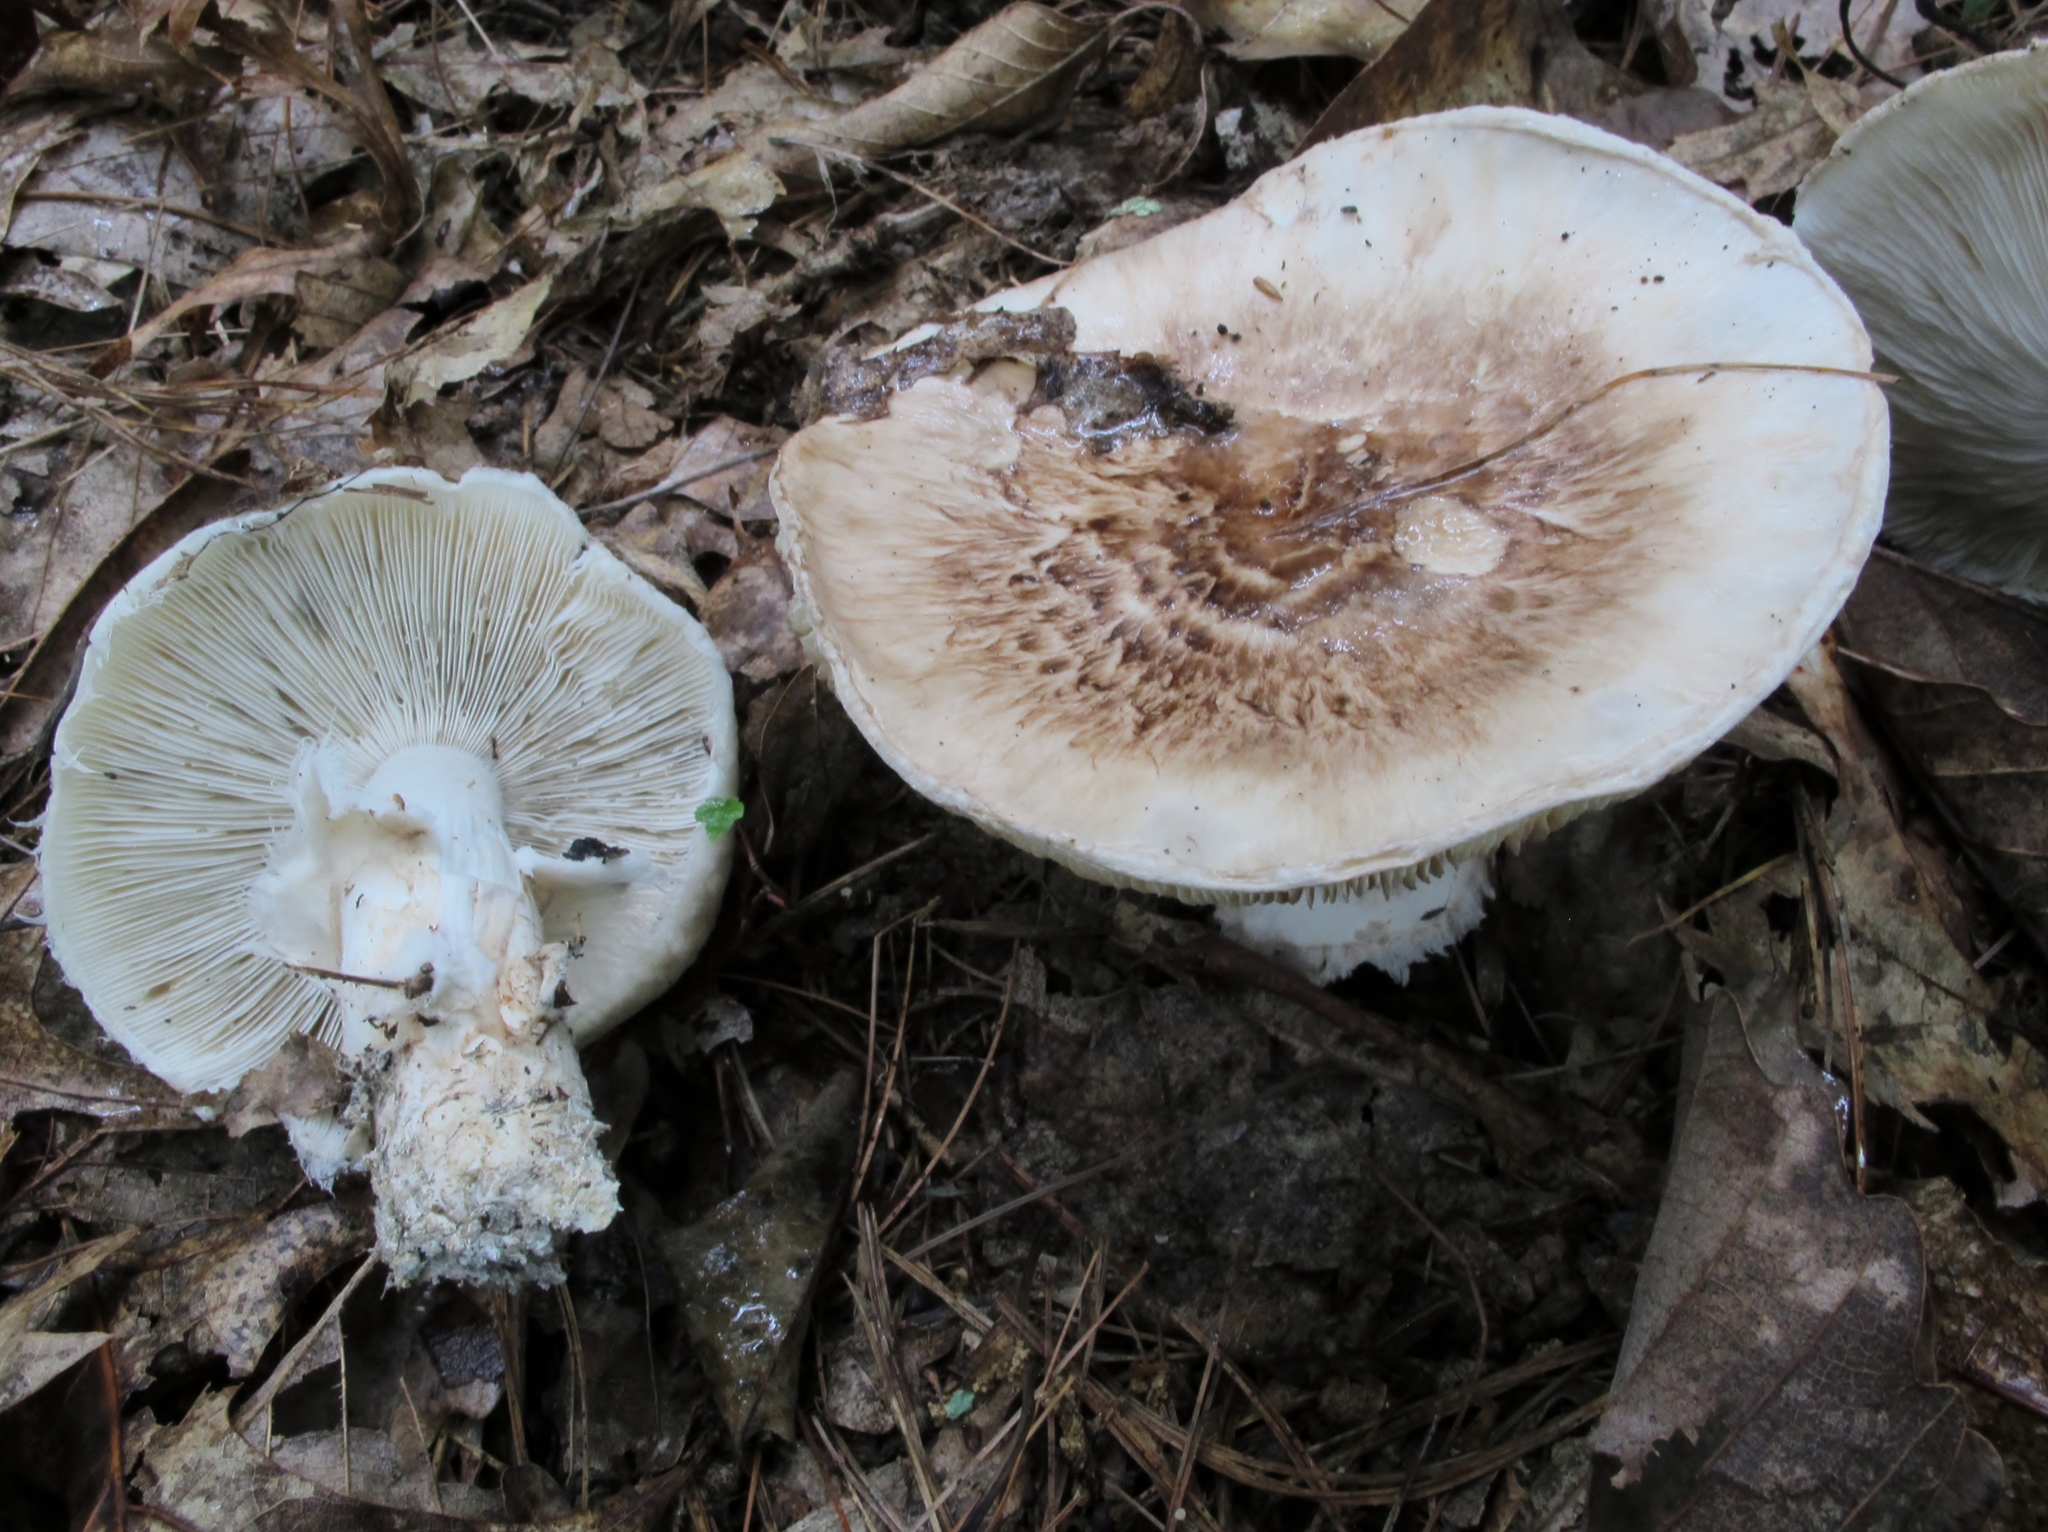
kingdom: Fungi
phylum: Basidiomycota
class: Agaricomycetes
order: Agaricales
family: Tricholomataceae
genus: Tricholoma
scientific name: Tricholoma caligatum
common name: True booted knight
